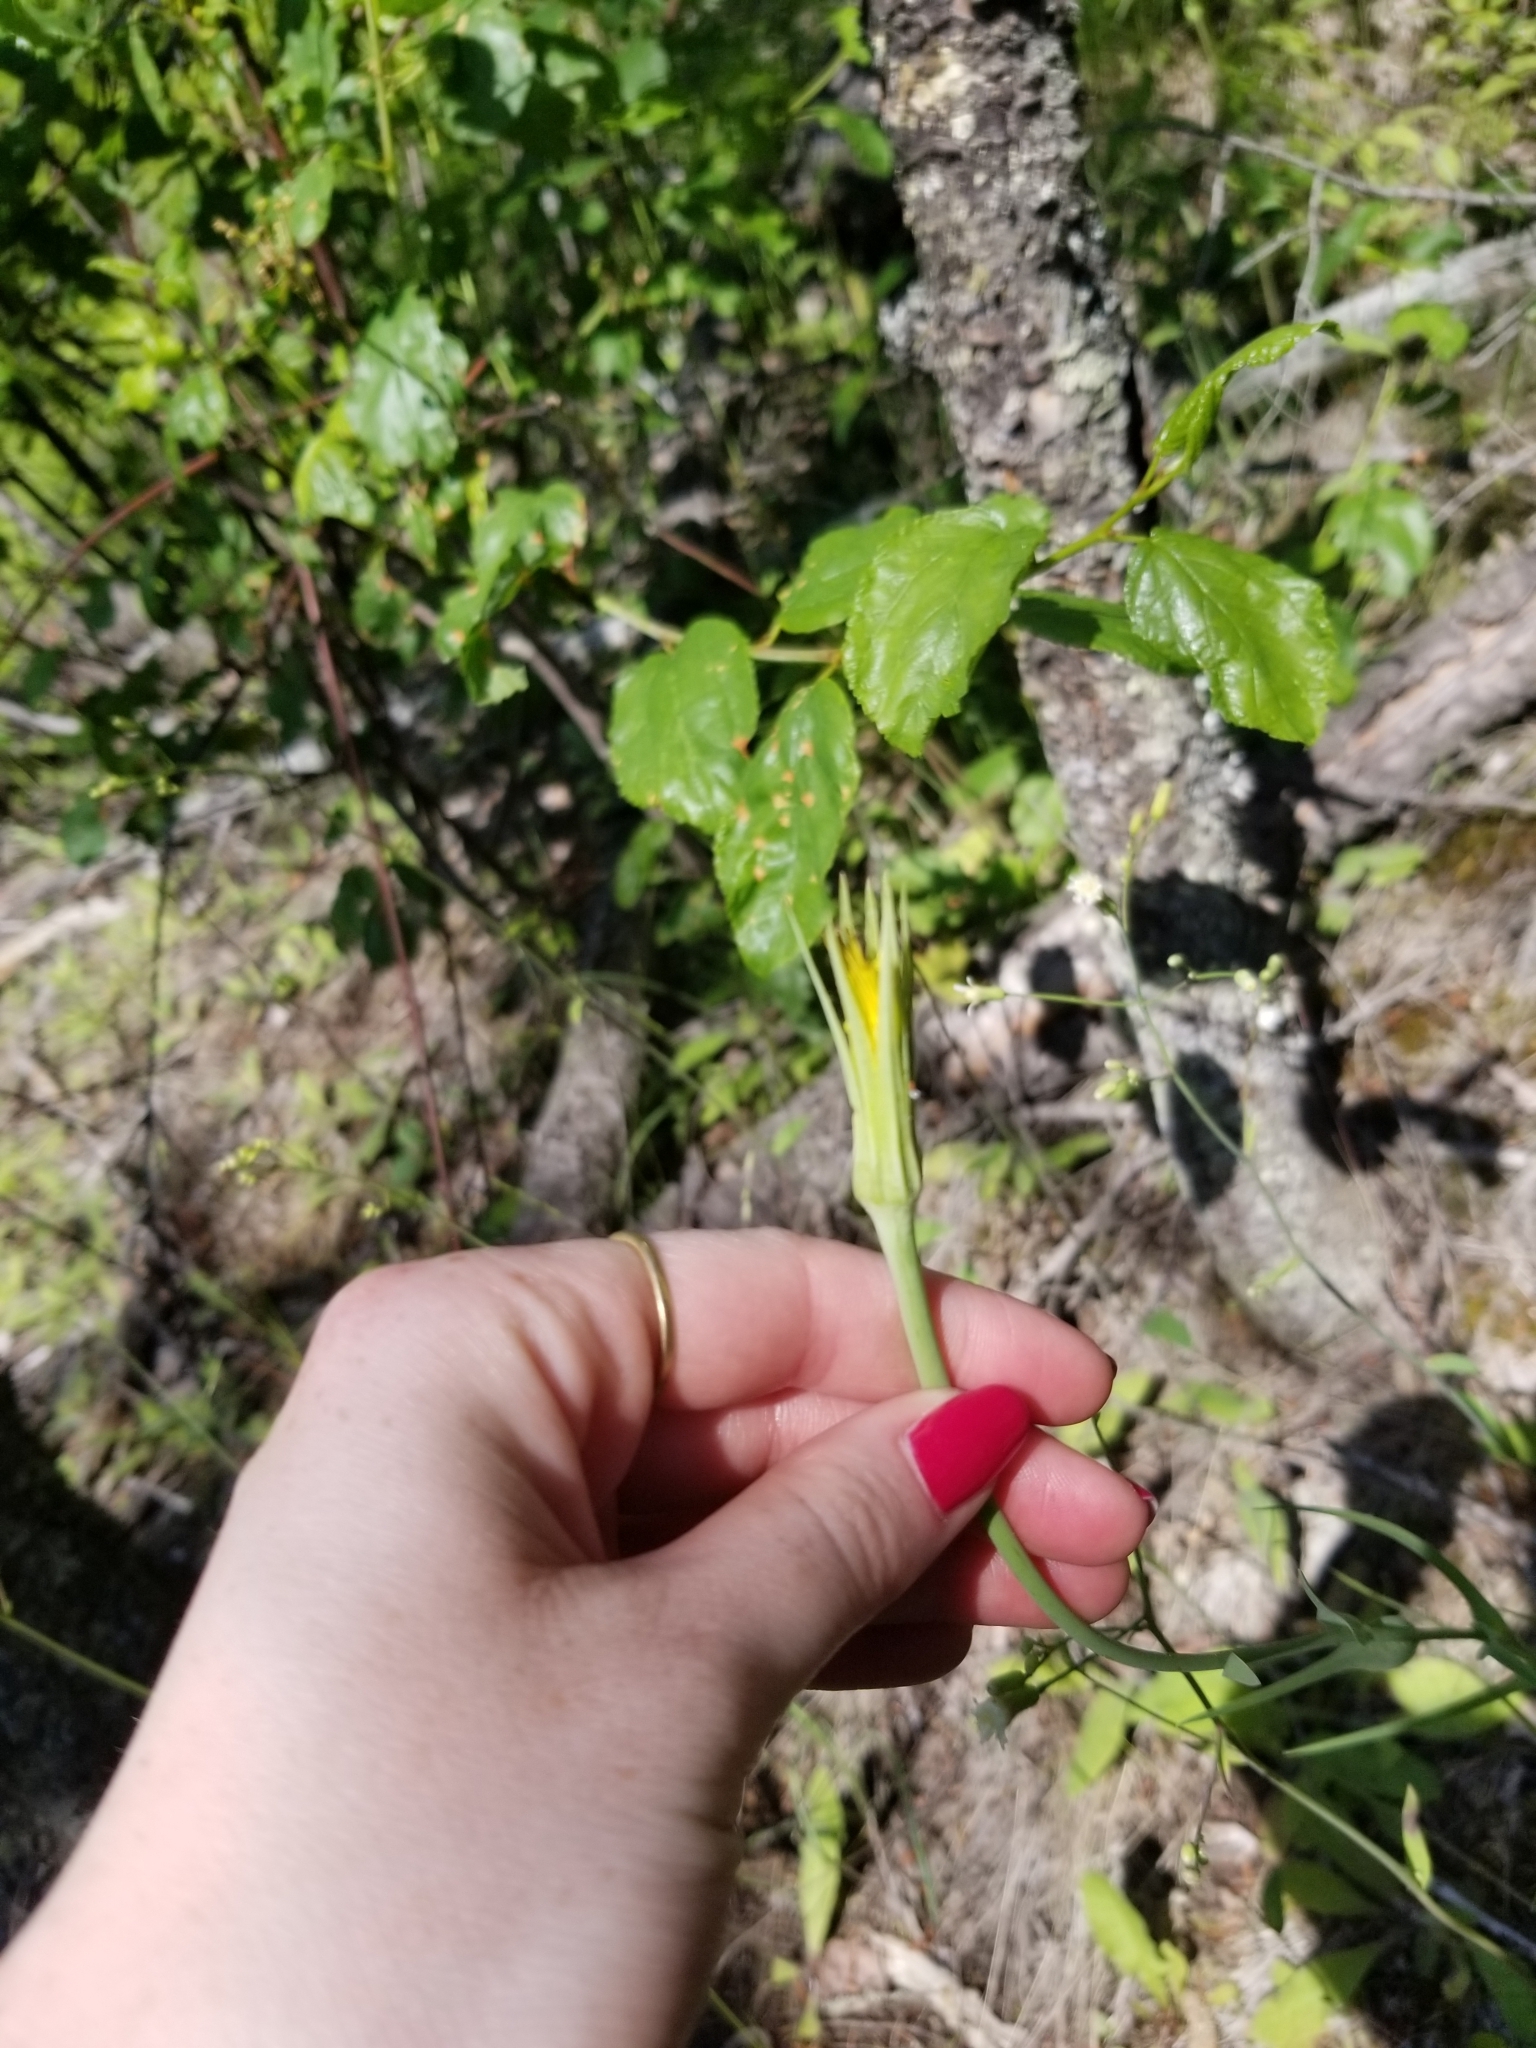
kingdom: Plantae
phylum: Tracheophyta
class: Magnoliopsida
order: Asterales
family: Asteraceae
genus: Tragopogon
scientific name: Tragopogon dubius
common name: Yellow salsify
